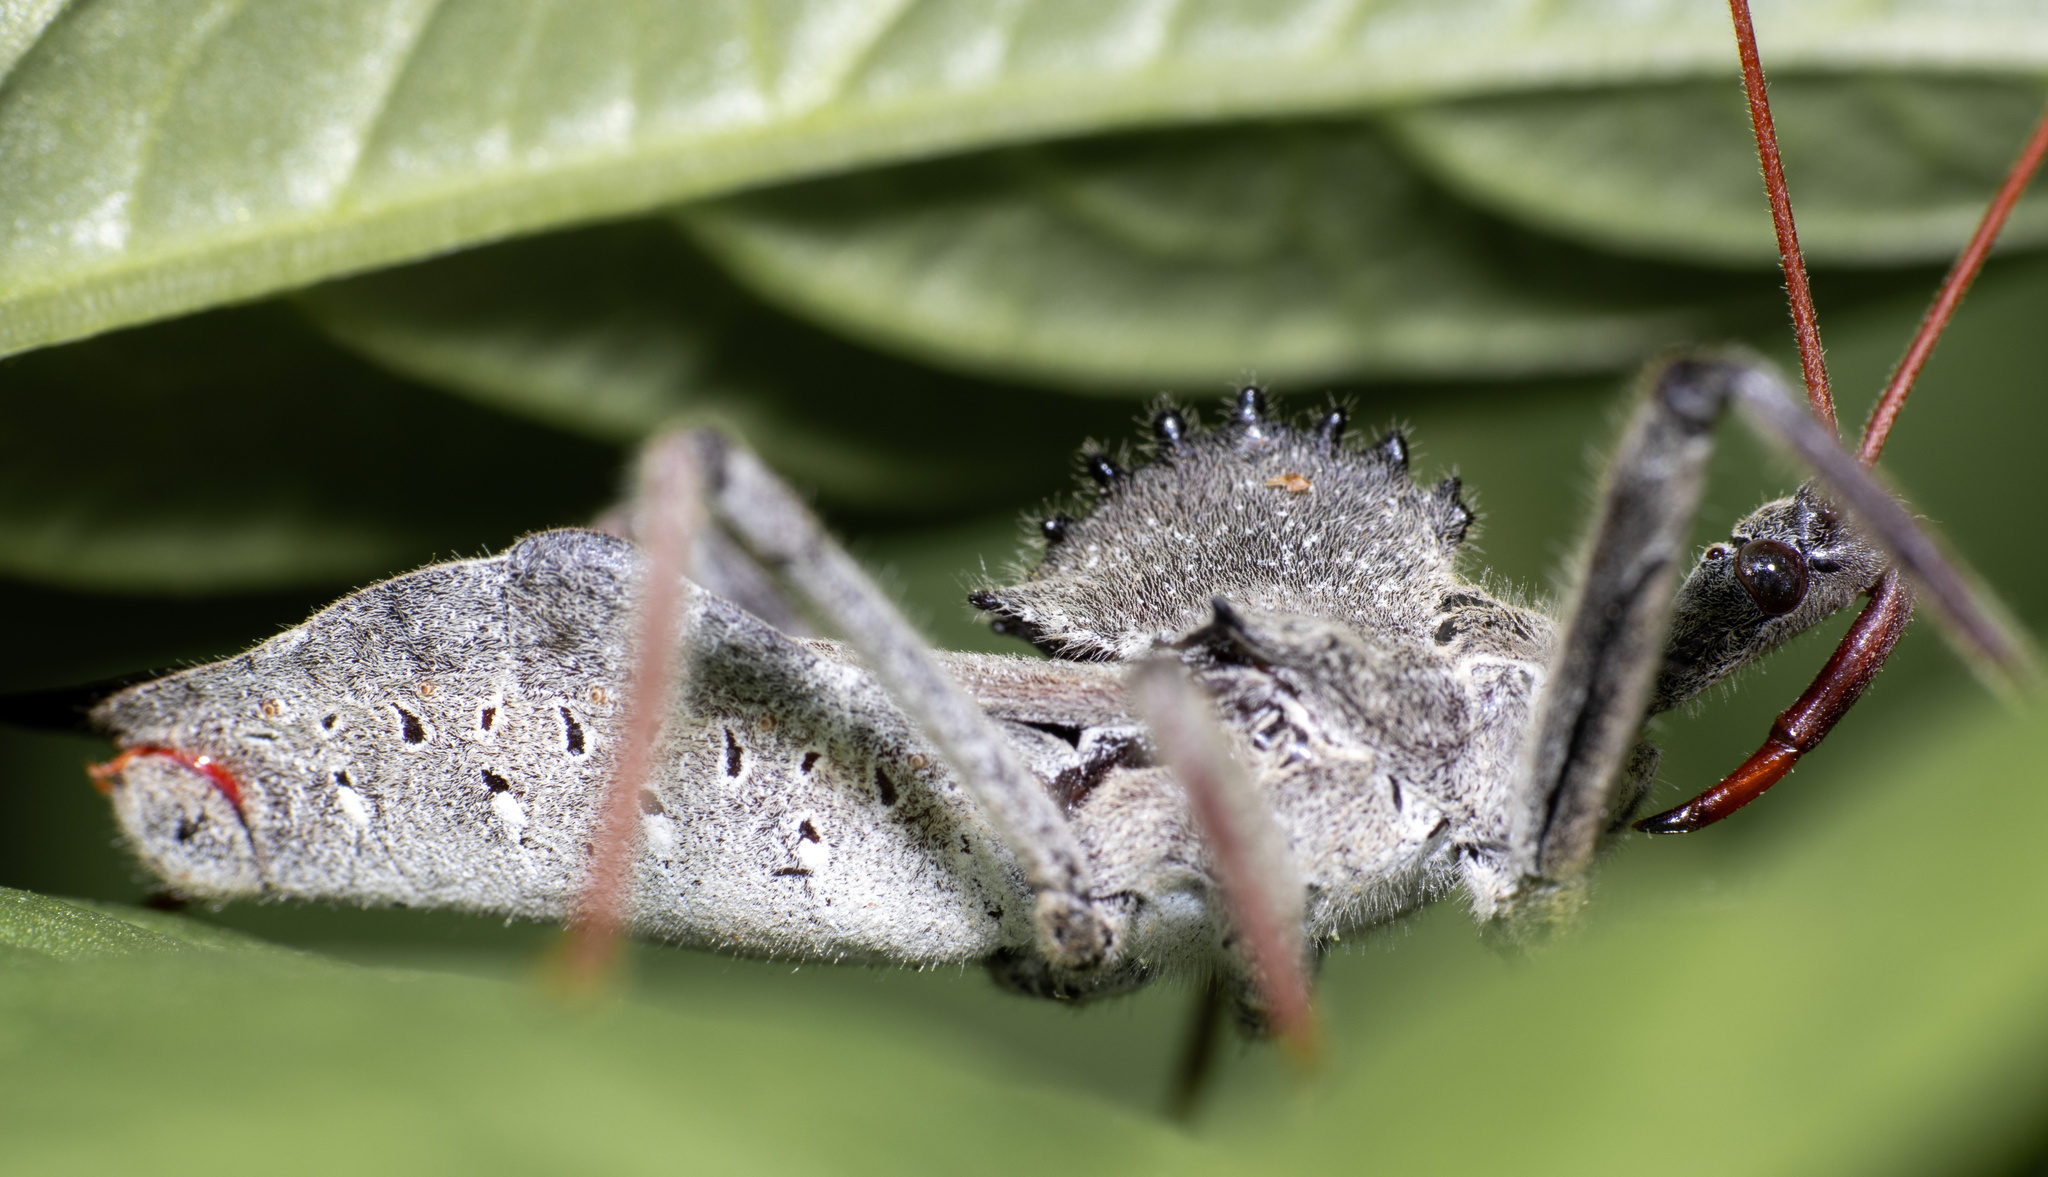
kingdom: Animalia
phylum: Arthropoda
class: Insecta
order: Hemiptera
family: Reduviidae
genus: Arilus
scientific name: Arilus cristatus
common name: North american wheel bug
